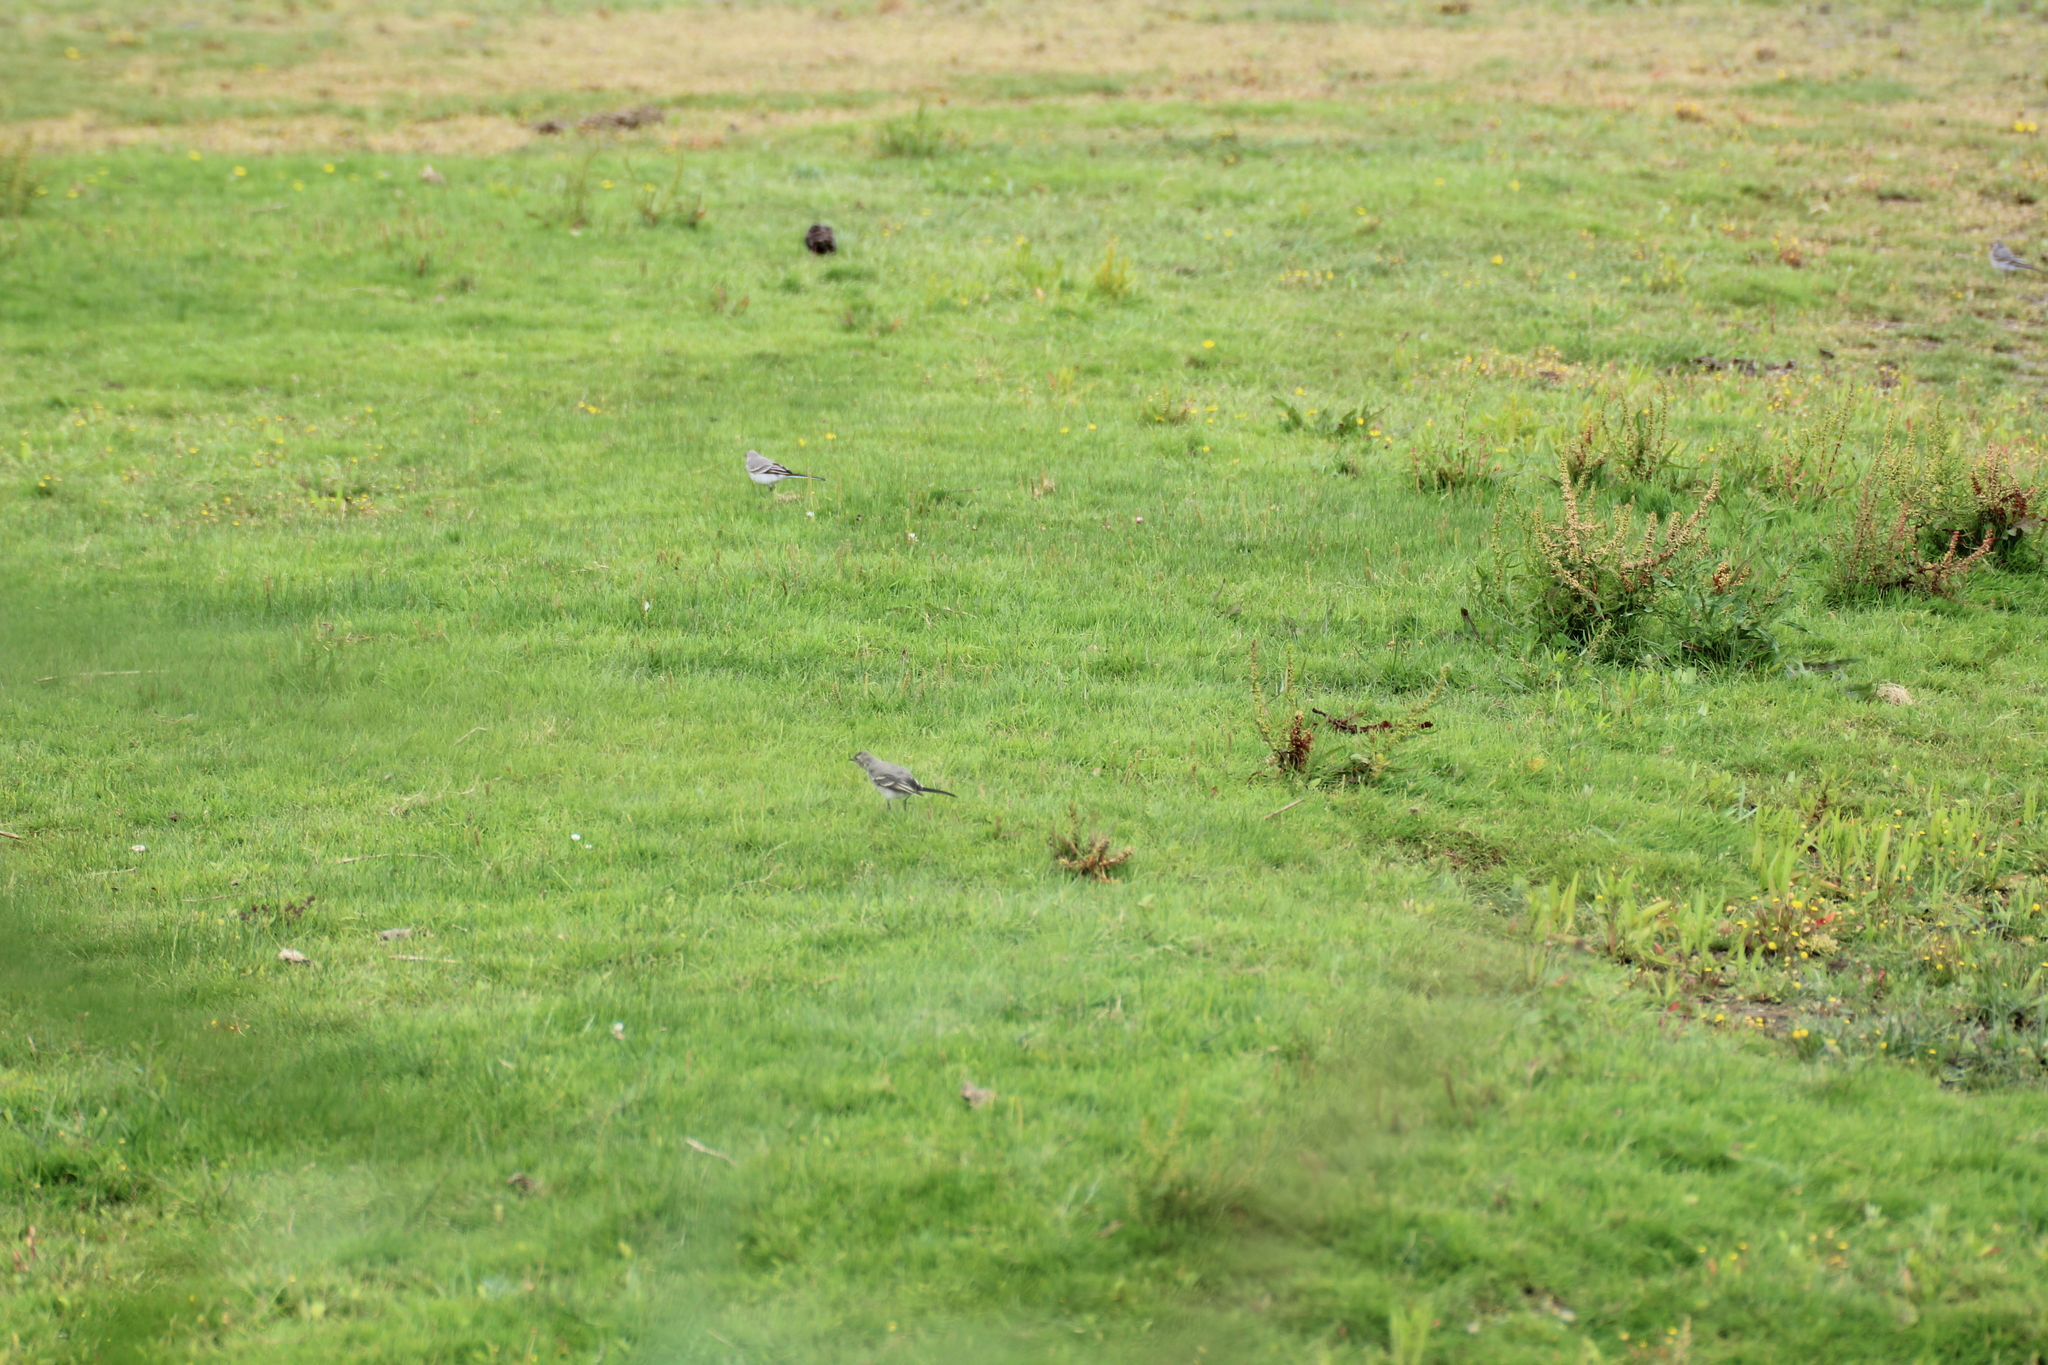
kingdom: Animalia
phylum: Chordata
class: Aves
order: Passeriformes
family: Motacillidae
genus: Motacilla
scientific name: Motacilla alba
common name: White wagtail
